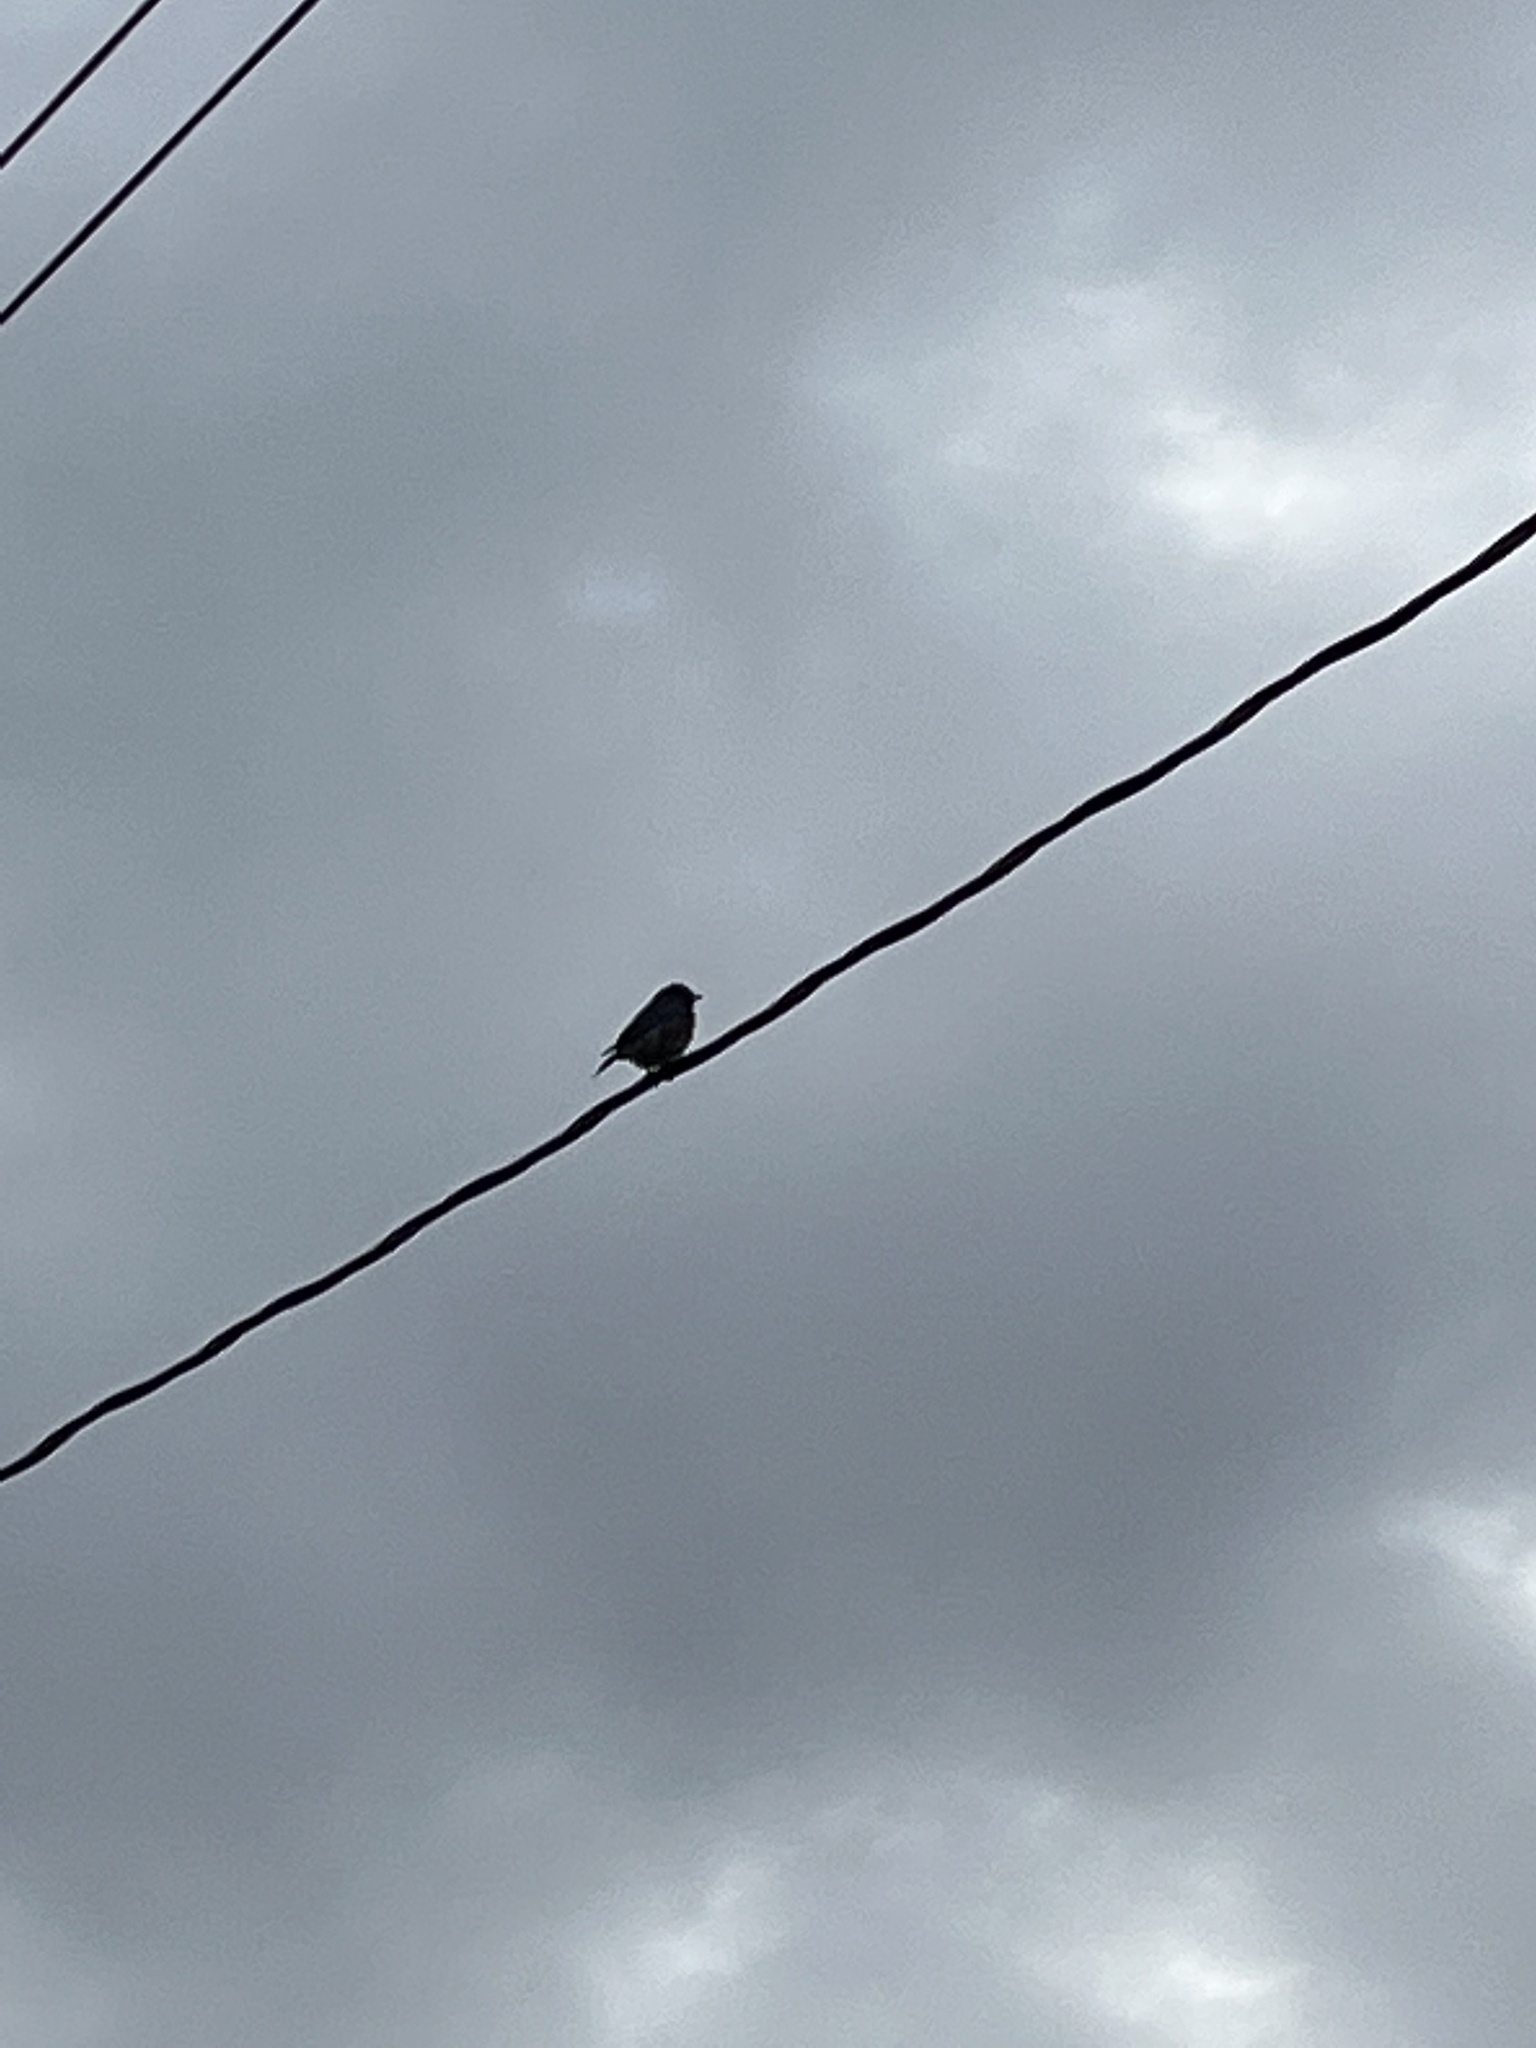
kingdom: Animalia
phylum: Chordata
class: Aves
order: Passeriformes
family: Turdidae
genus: Sialia
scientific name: Sialia sialis
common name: Eastern bluebird
